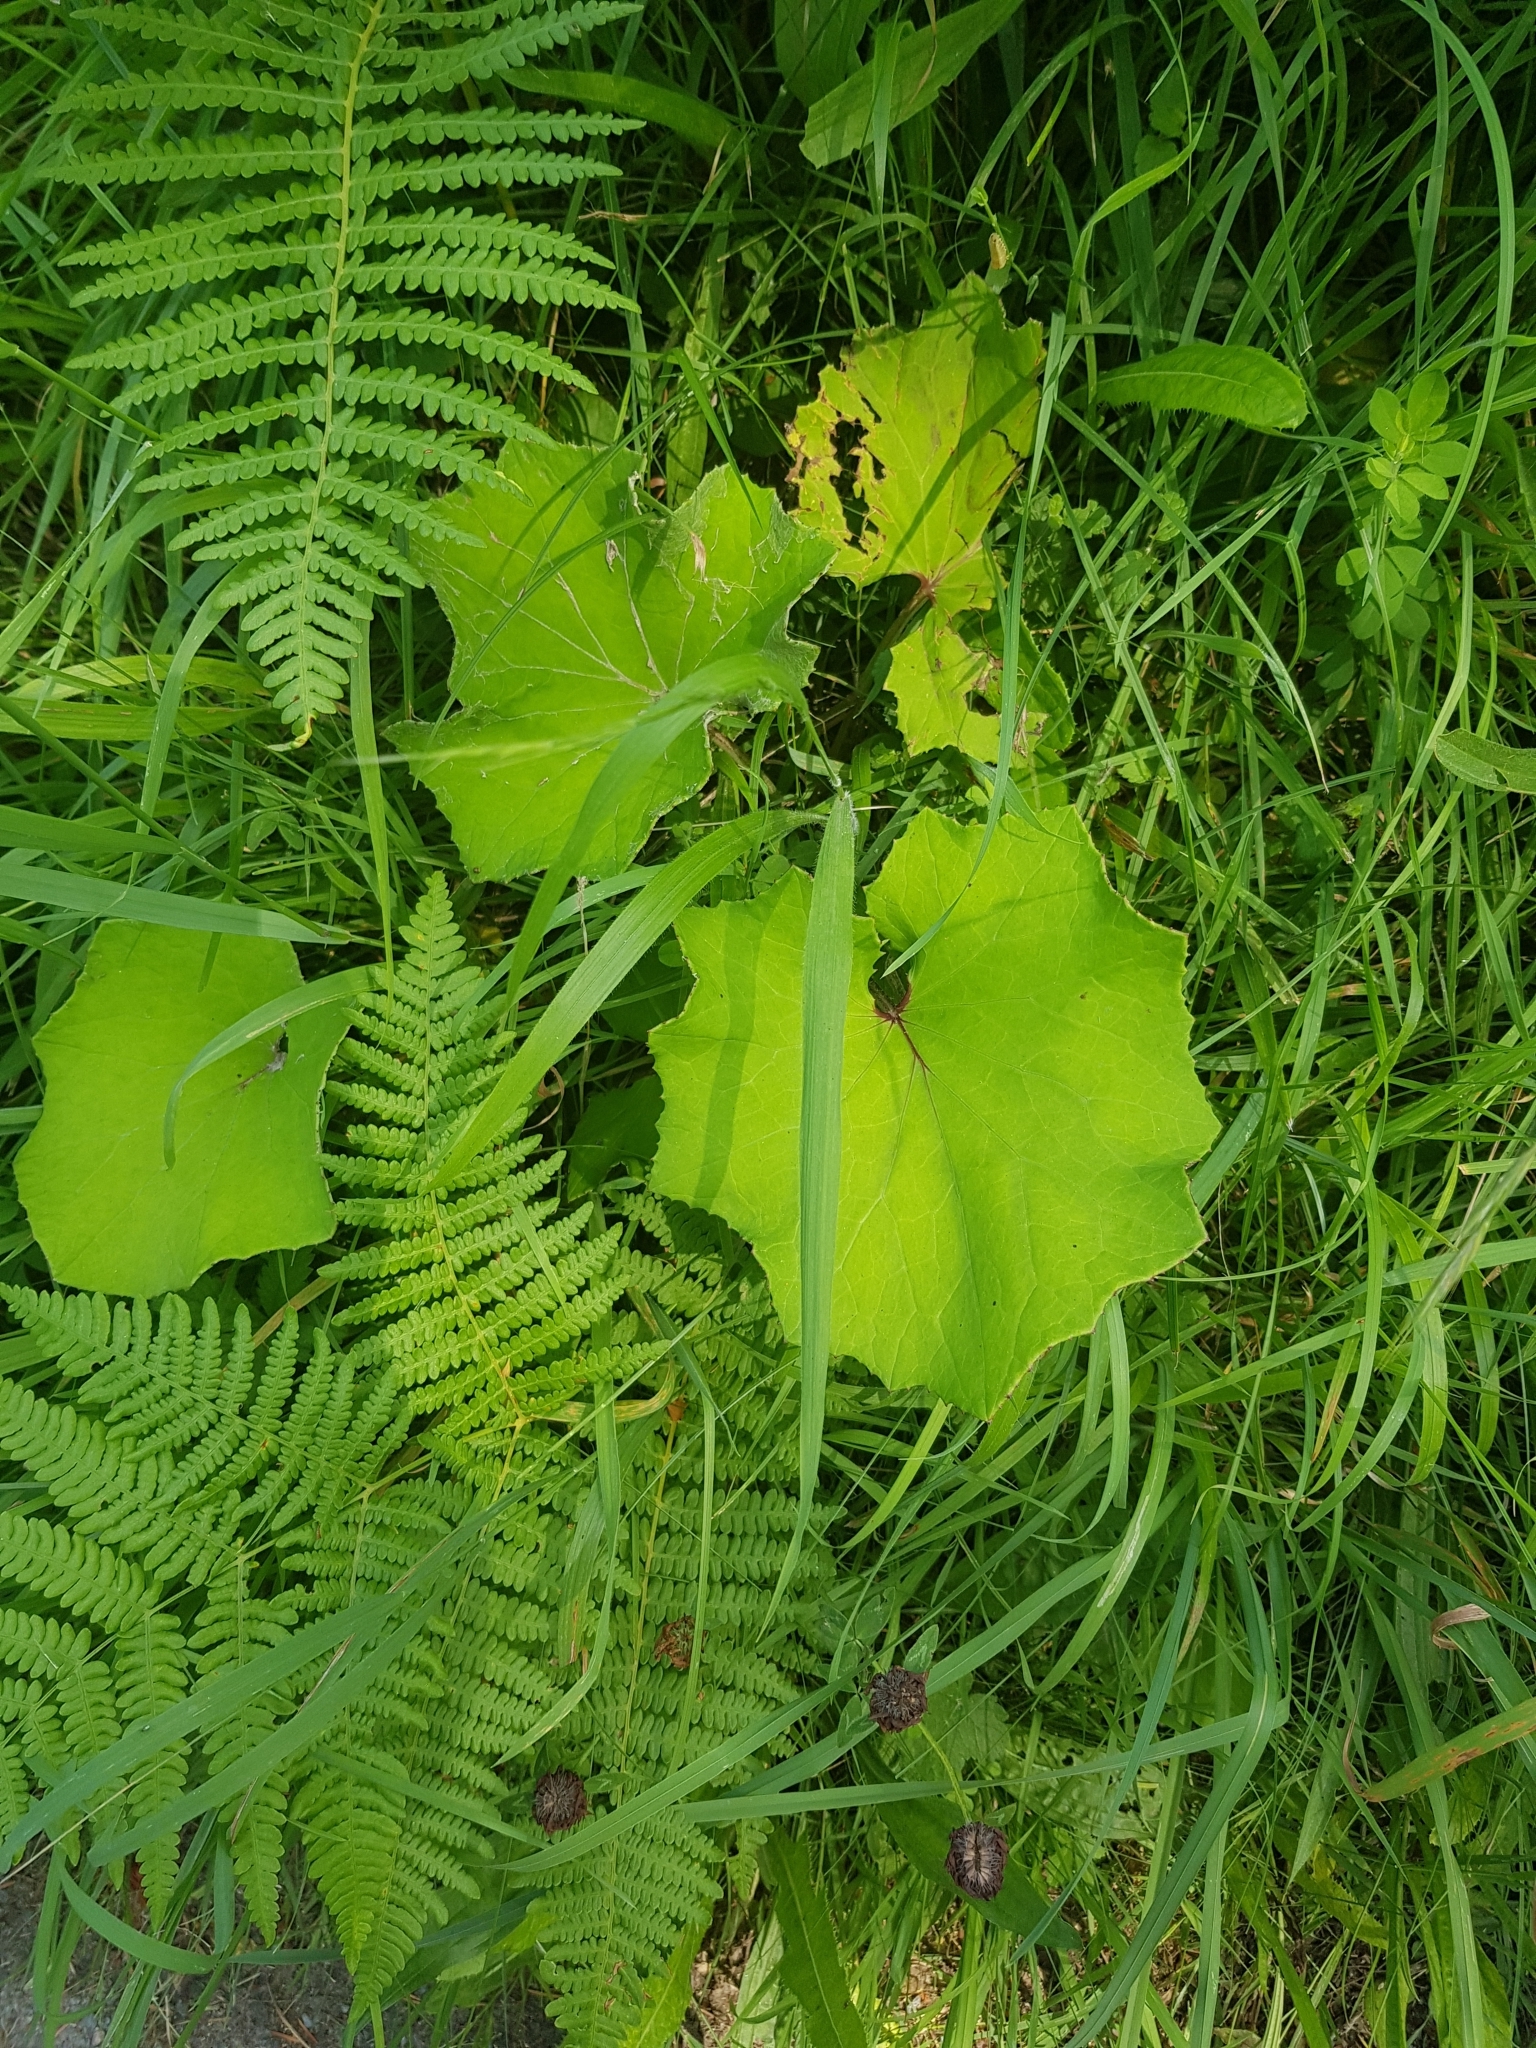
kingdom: Plantae
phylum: Tracheophyta
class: Magnoliopsida
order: Asterales
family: Asteraceae
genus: Tussilago
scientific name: Tussilago farfara
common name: Coltsfoot
